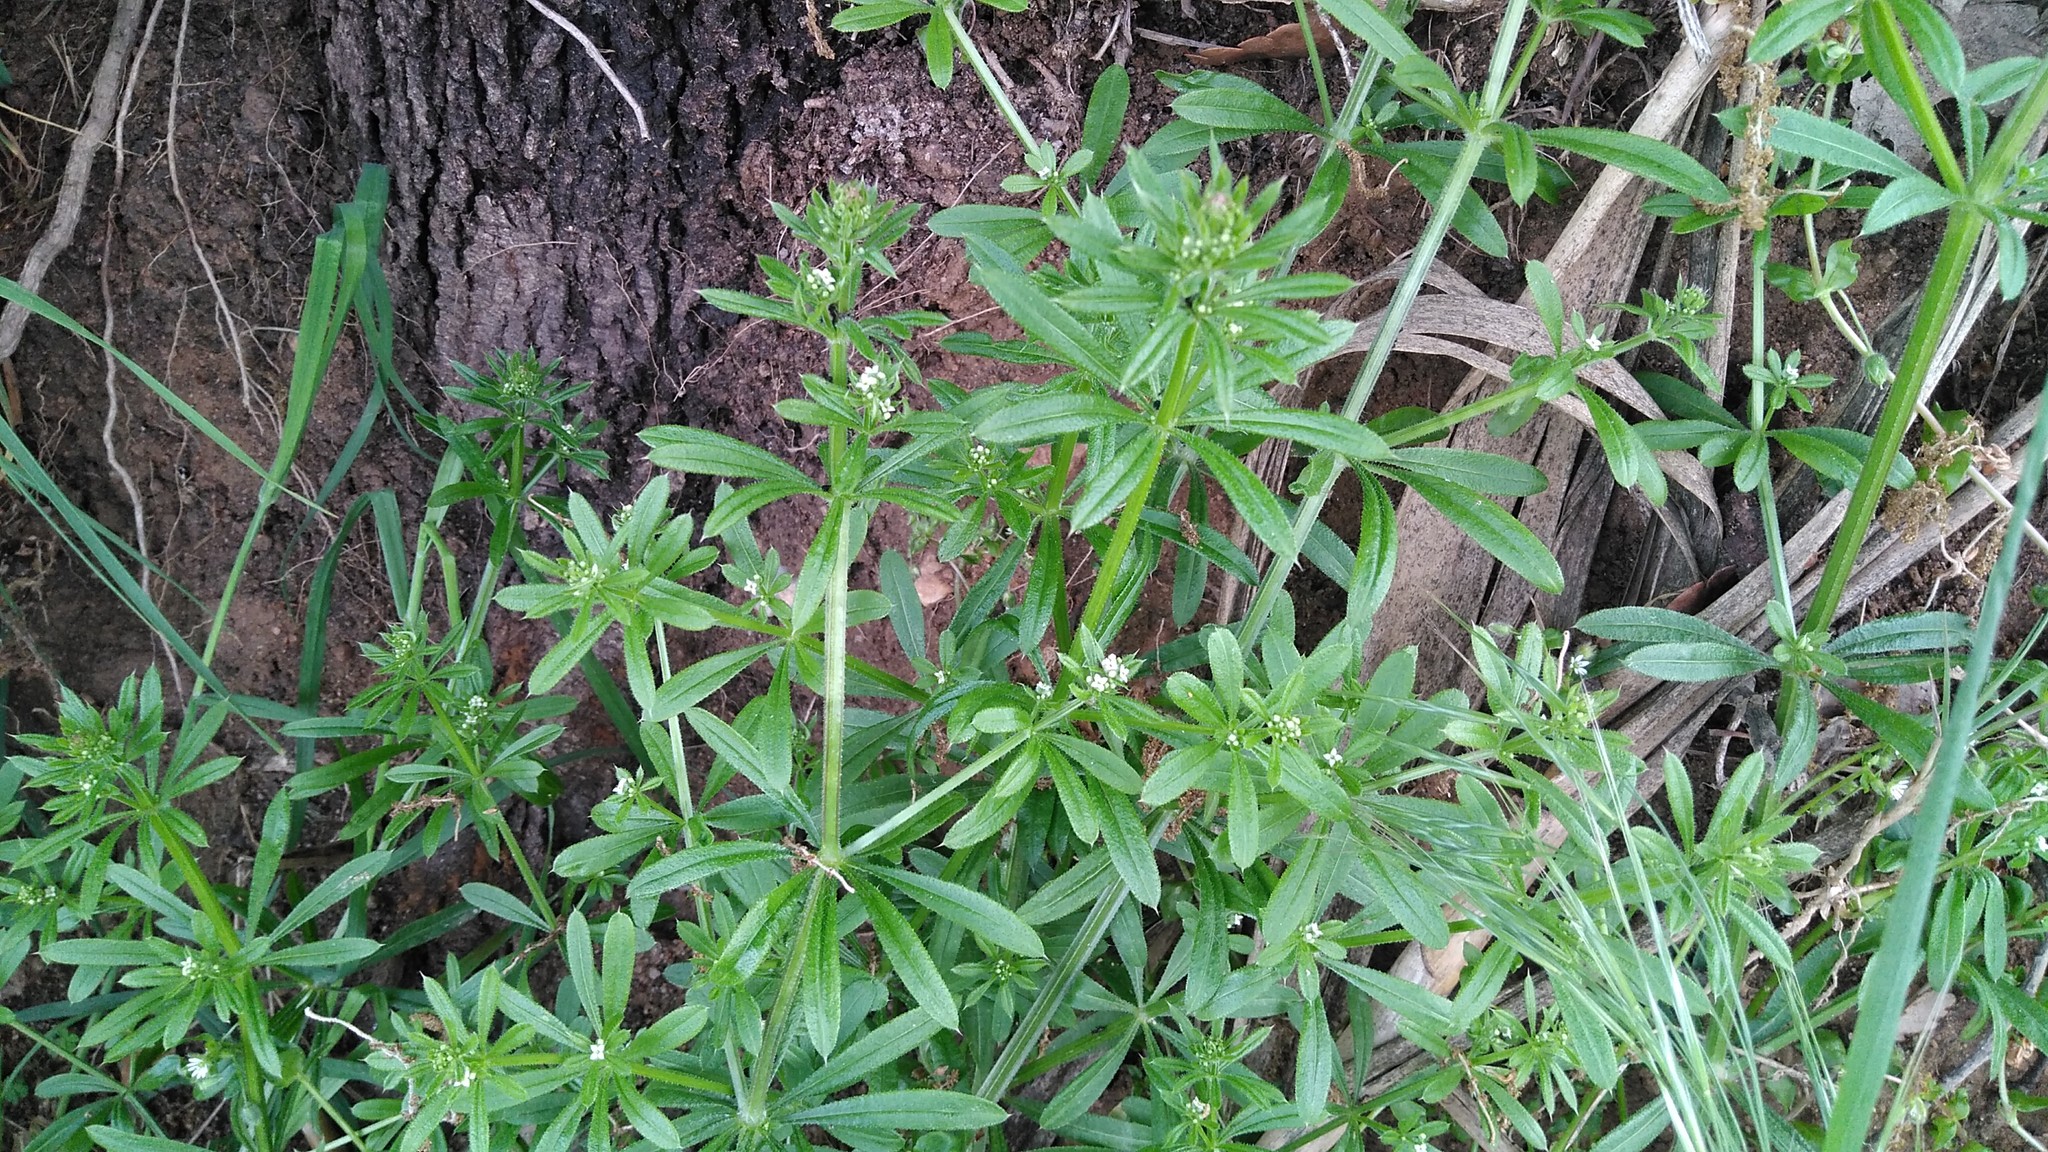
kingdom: Plantae
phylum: Tracheophyta
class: Magnoliopsida
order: Gentianales
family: Rubiaceae
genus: Galium
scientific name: Galium aparine
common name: Cleavers
